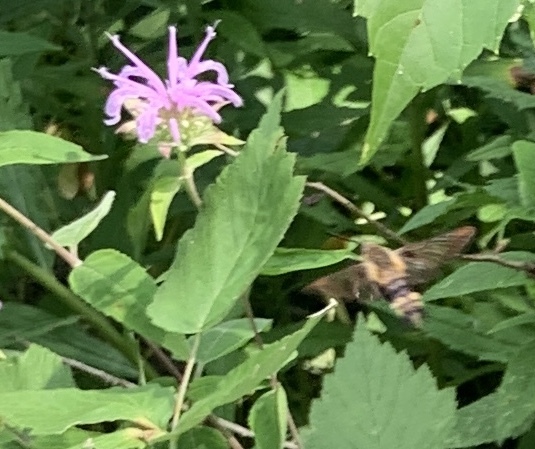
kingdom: Animalia
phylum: Arthropoda
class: Insecta
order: Lepidoptera
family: Sphingidae
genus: Hemaris
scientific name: Hemaris diffinis
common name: Bumblebee moth
